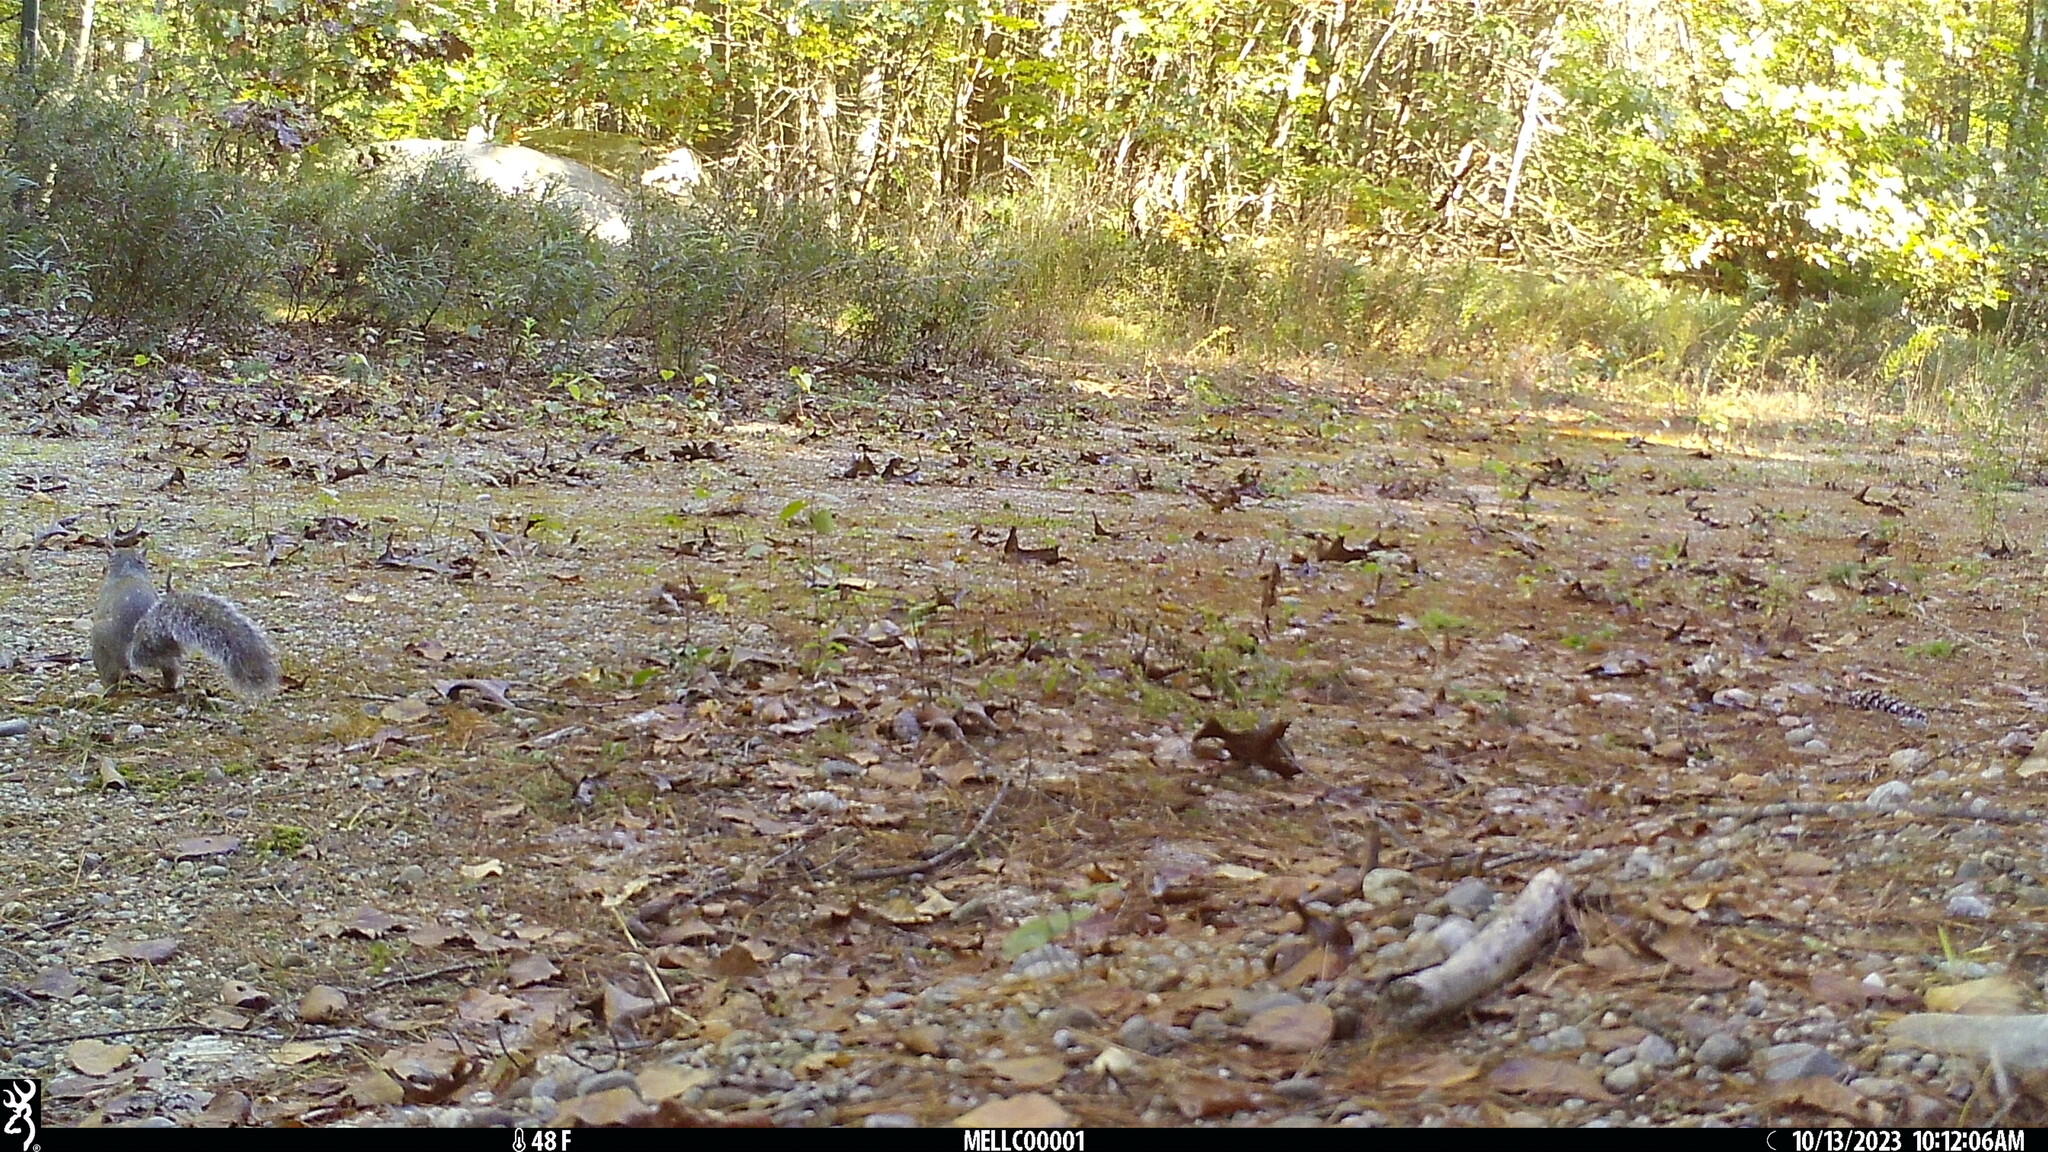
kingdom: Animalia
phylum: Chordata
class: Mammalia
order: Rodentia
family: Sciuridae
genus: Sciurus
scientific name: Sciurus carolinensis
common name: Eastern gray squirrel
